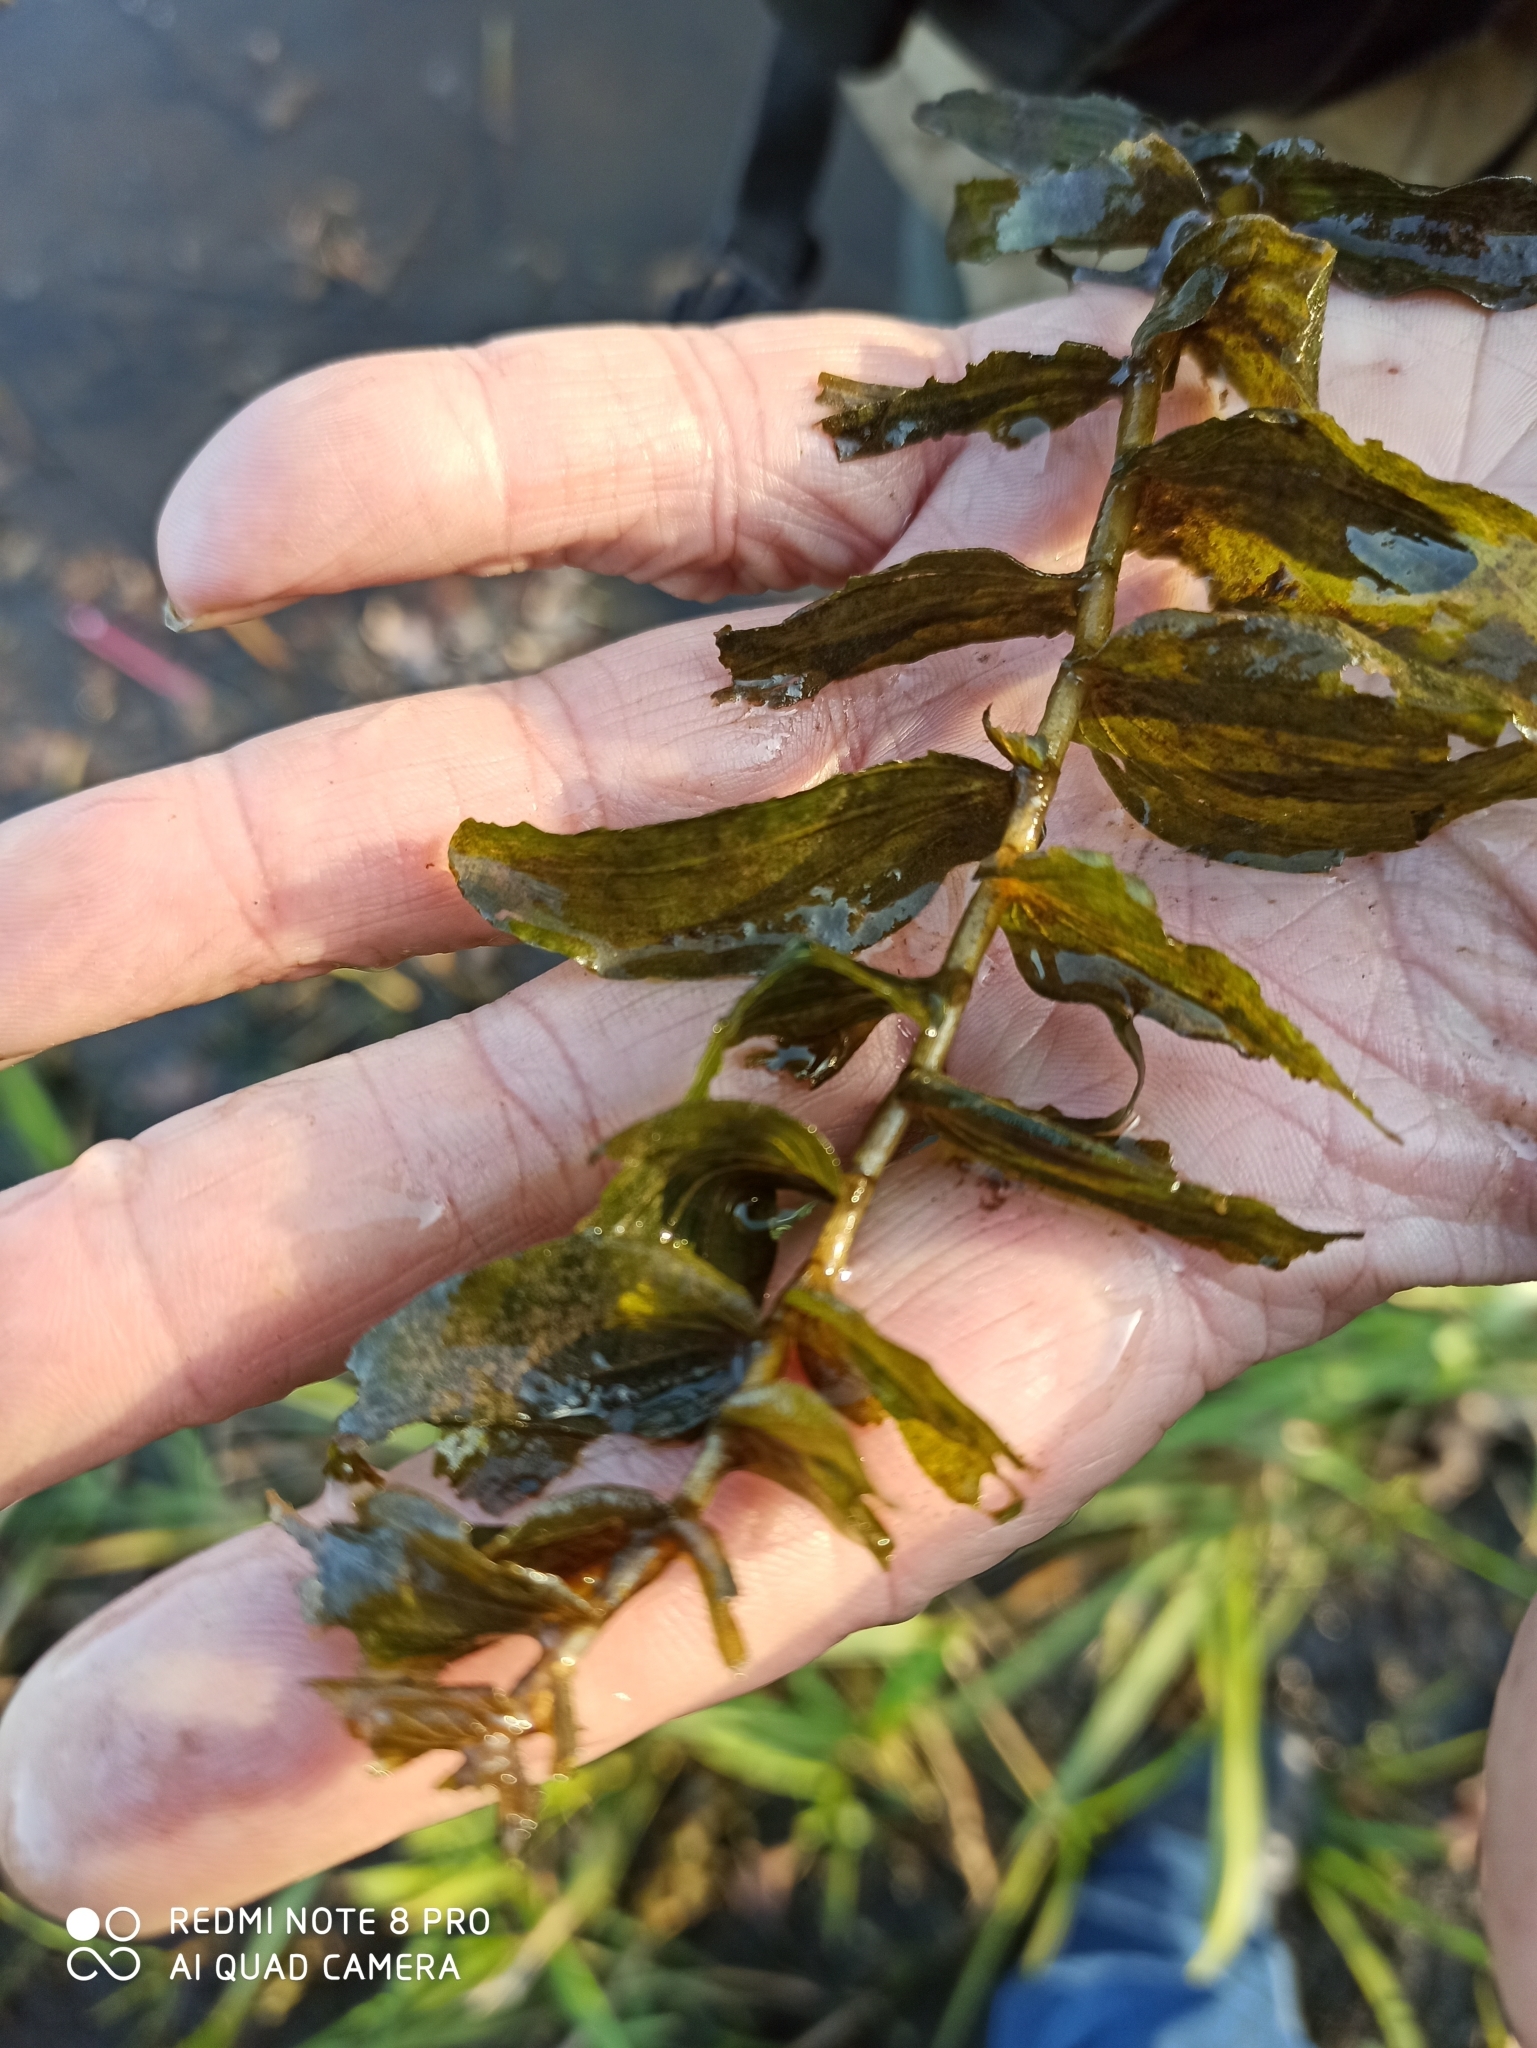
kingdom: Plantae
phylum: Tracheophyta
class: Liliopsida
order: Alismatales
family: Potamogetonaceae
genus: Potamogeton
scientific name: Potamogeton perfoliatus
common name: Perfoliate pondweed
